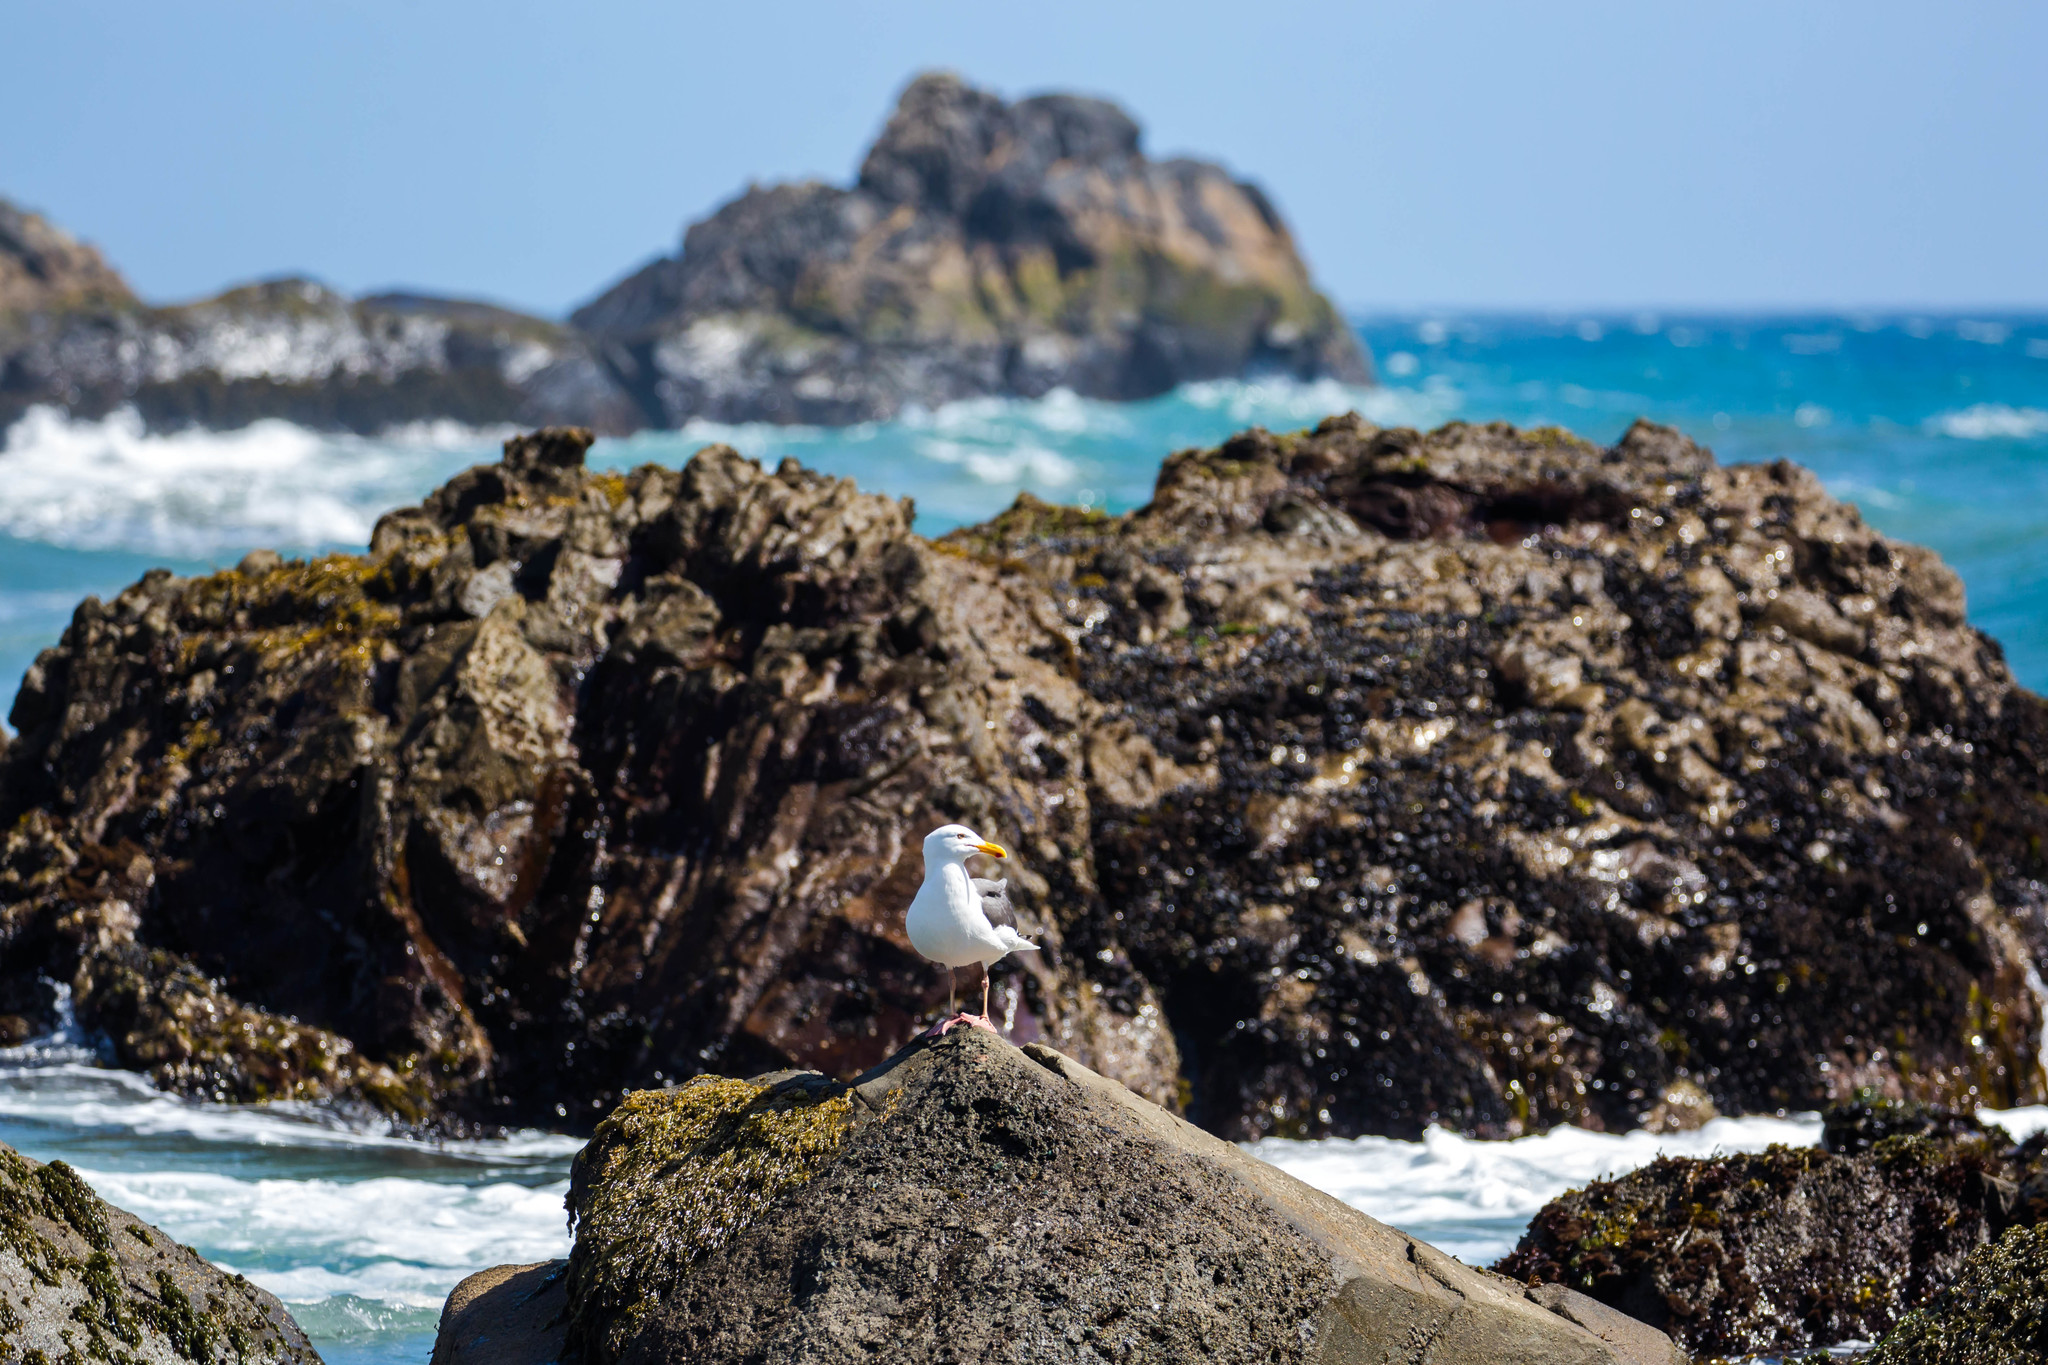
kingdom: Animalia
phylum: Chordata
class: Aves
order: Charadriiformes
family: Laridae
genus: Larus
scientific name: Larus occidentalis
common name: Western gull
